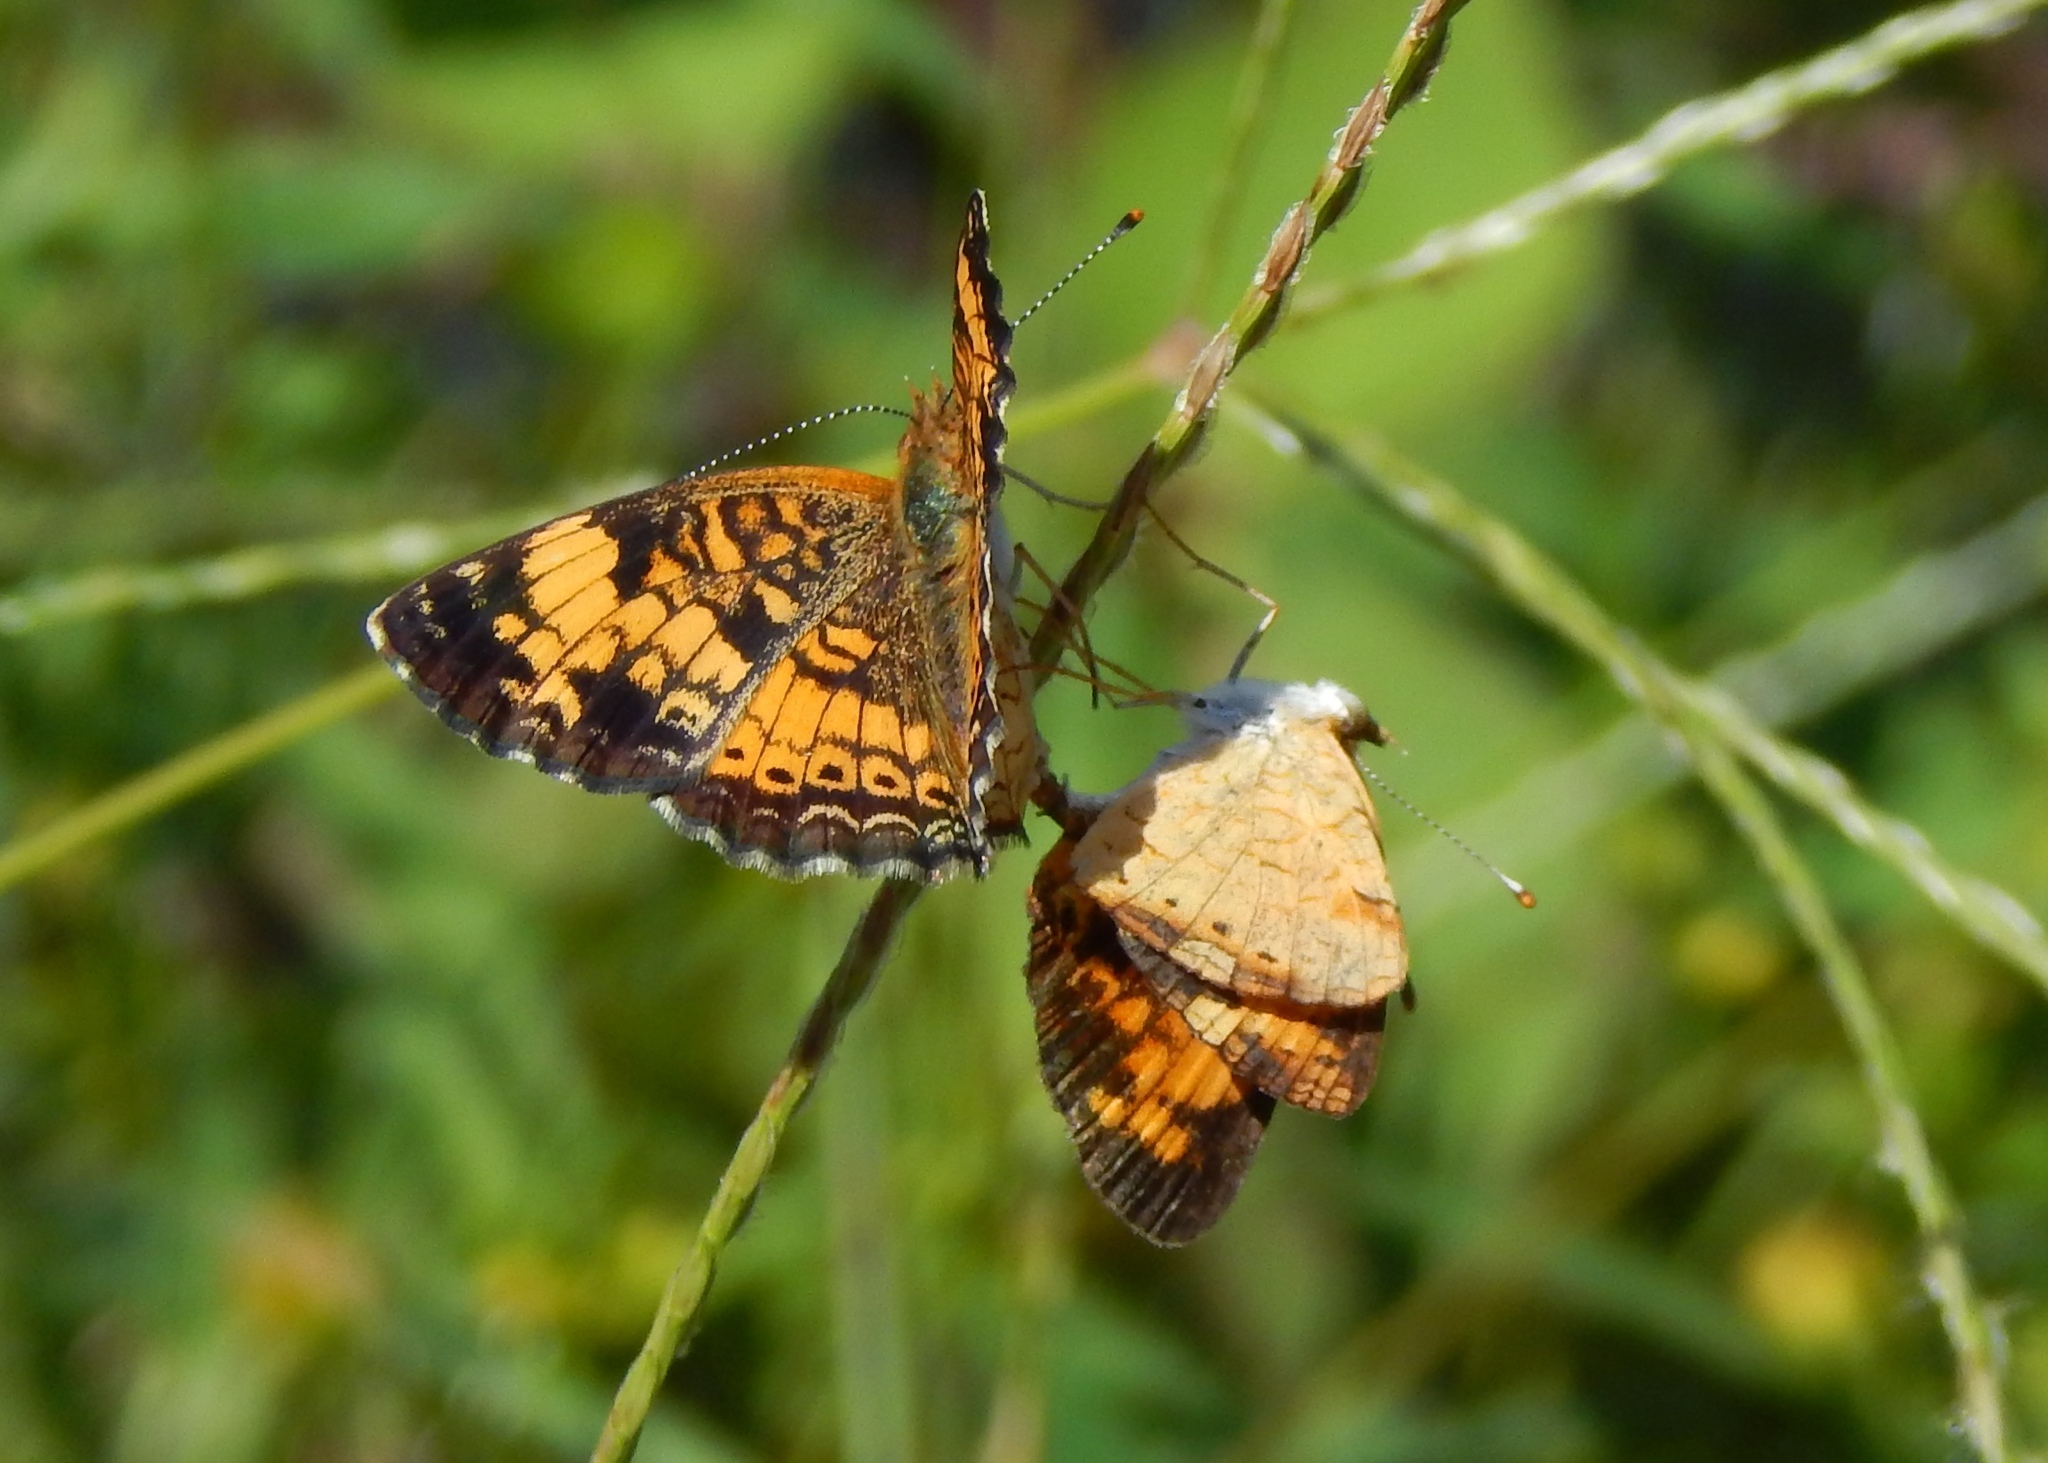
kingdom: Animalia
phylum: Arthropoda
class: Insecta
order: Lepidoptera
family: Nymphalidae
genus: Phyciodes
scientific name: Phyciodes tharos
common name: Pearl crescent
